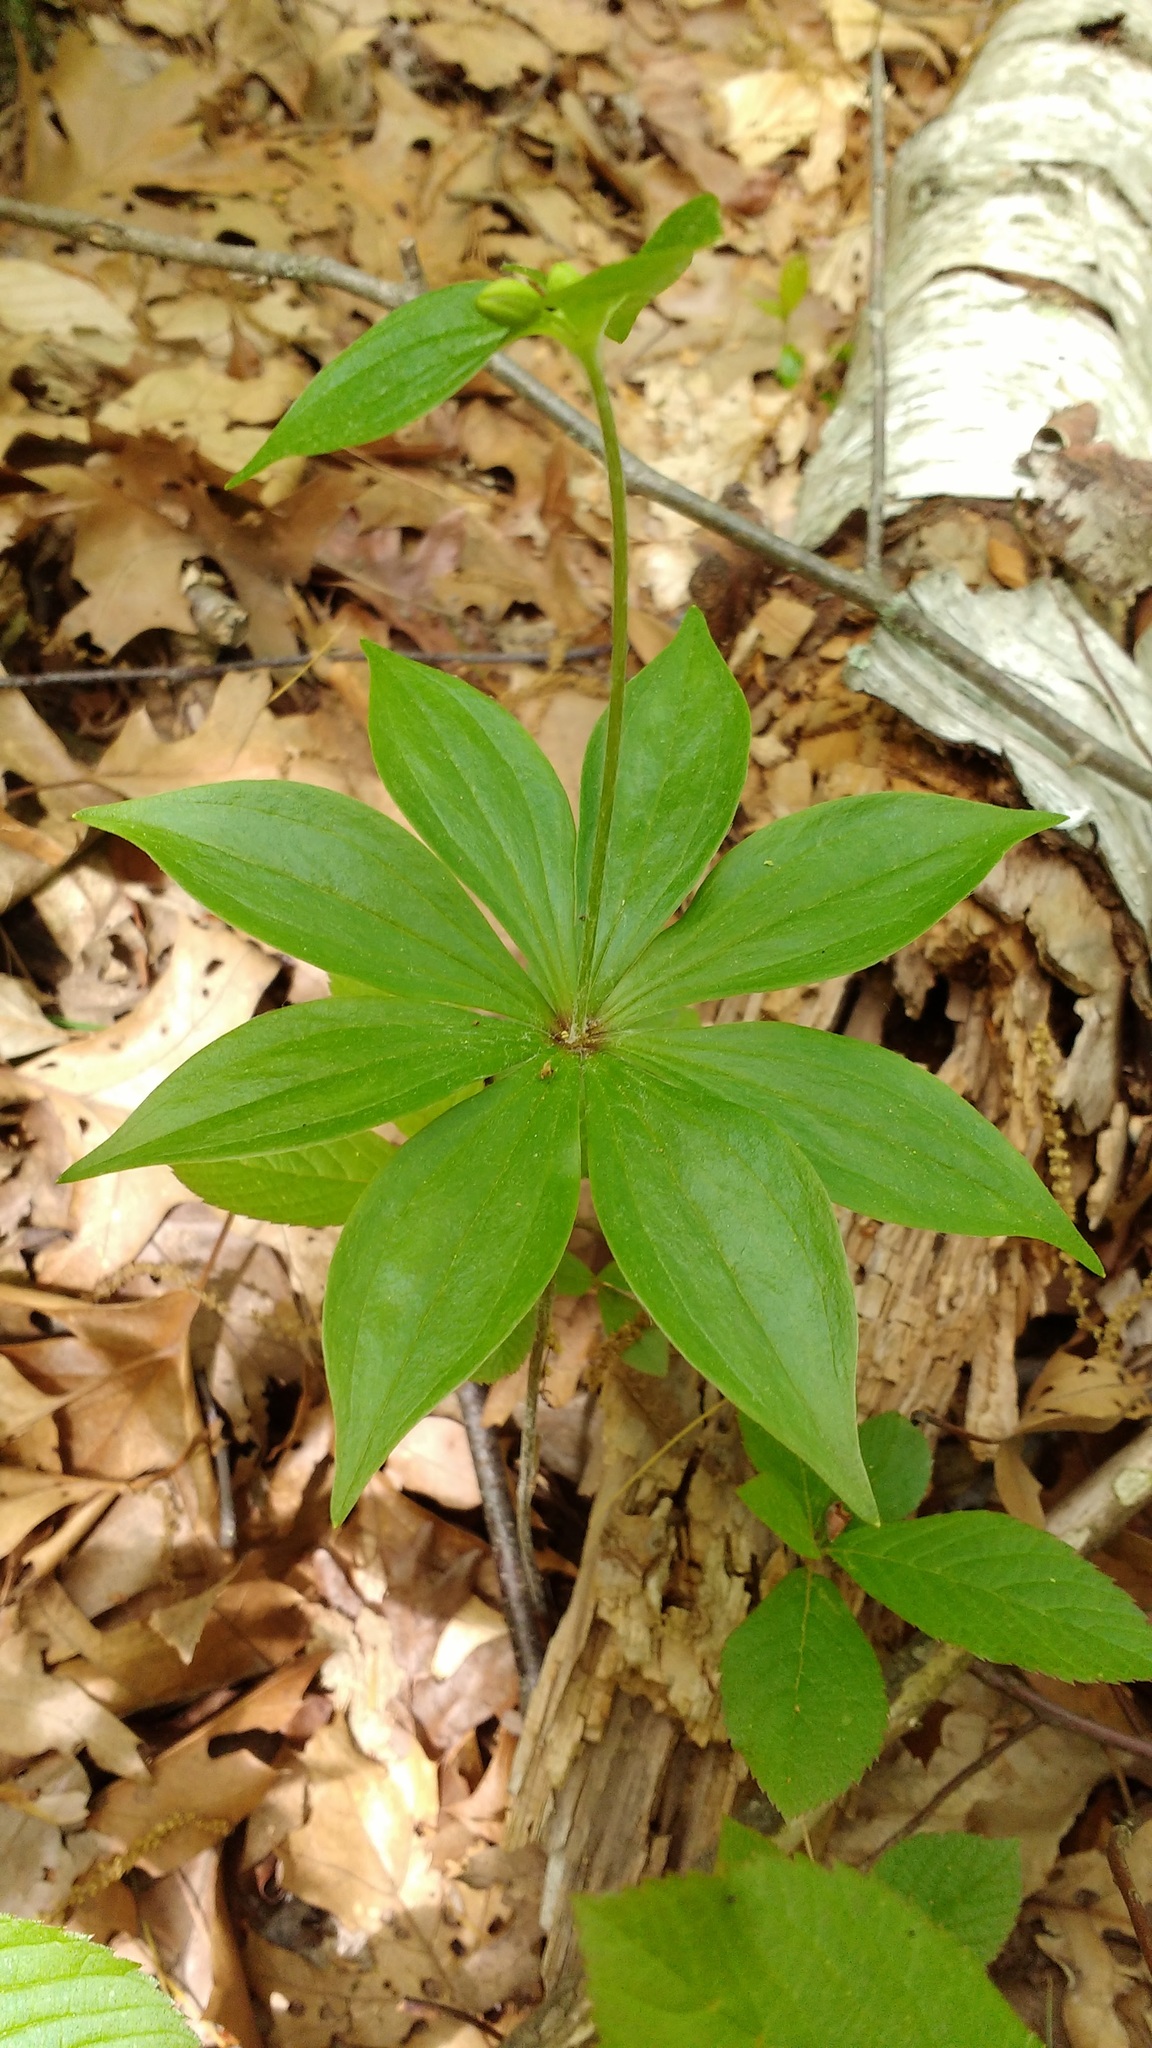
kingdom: Plantae
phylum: Tracheophyta
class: Liliopsida
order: Liliales
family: Liliaceae
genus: Medeola
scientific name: Medeola virginiana
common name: Indian cucumber-root
